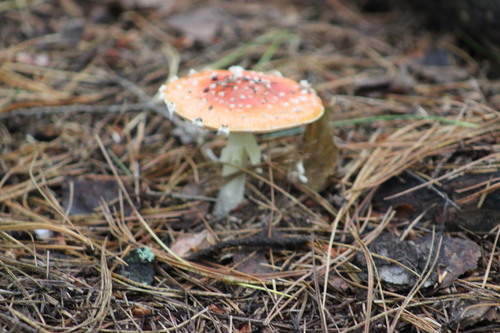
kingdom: Fungi
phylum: Basidiomycota
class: Agaricomycetes
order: Agaricales
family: Amanitaceae
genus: Amanita
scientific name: Amanita muscaria
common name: Fly agaric
